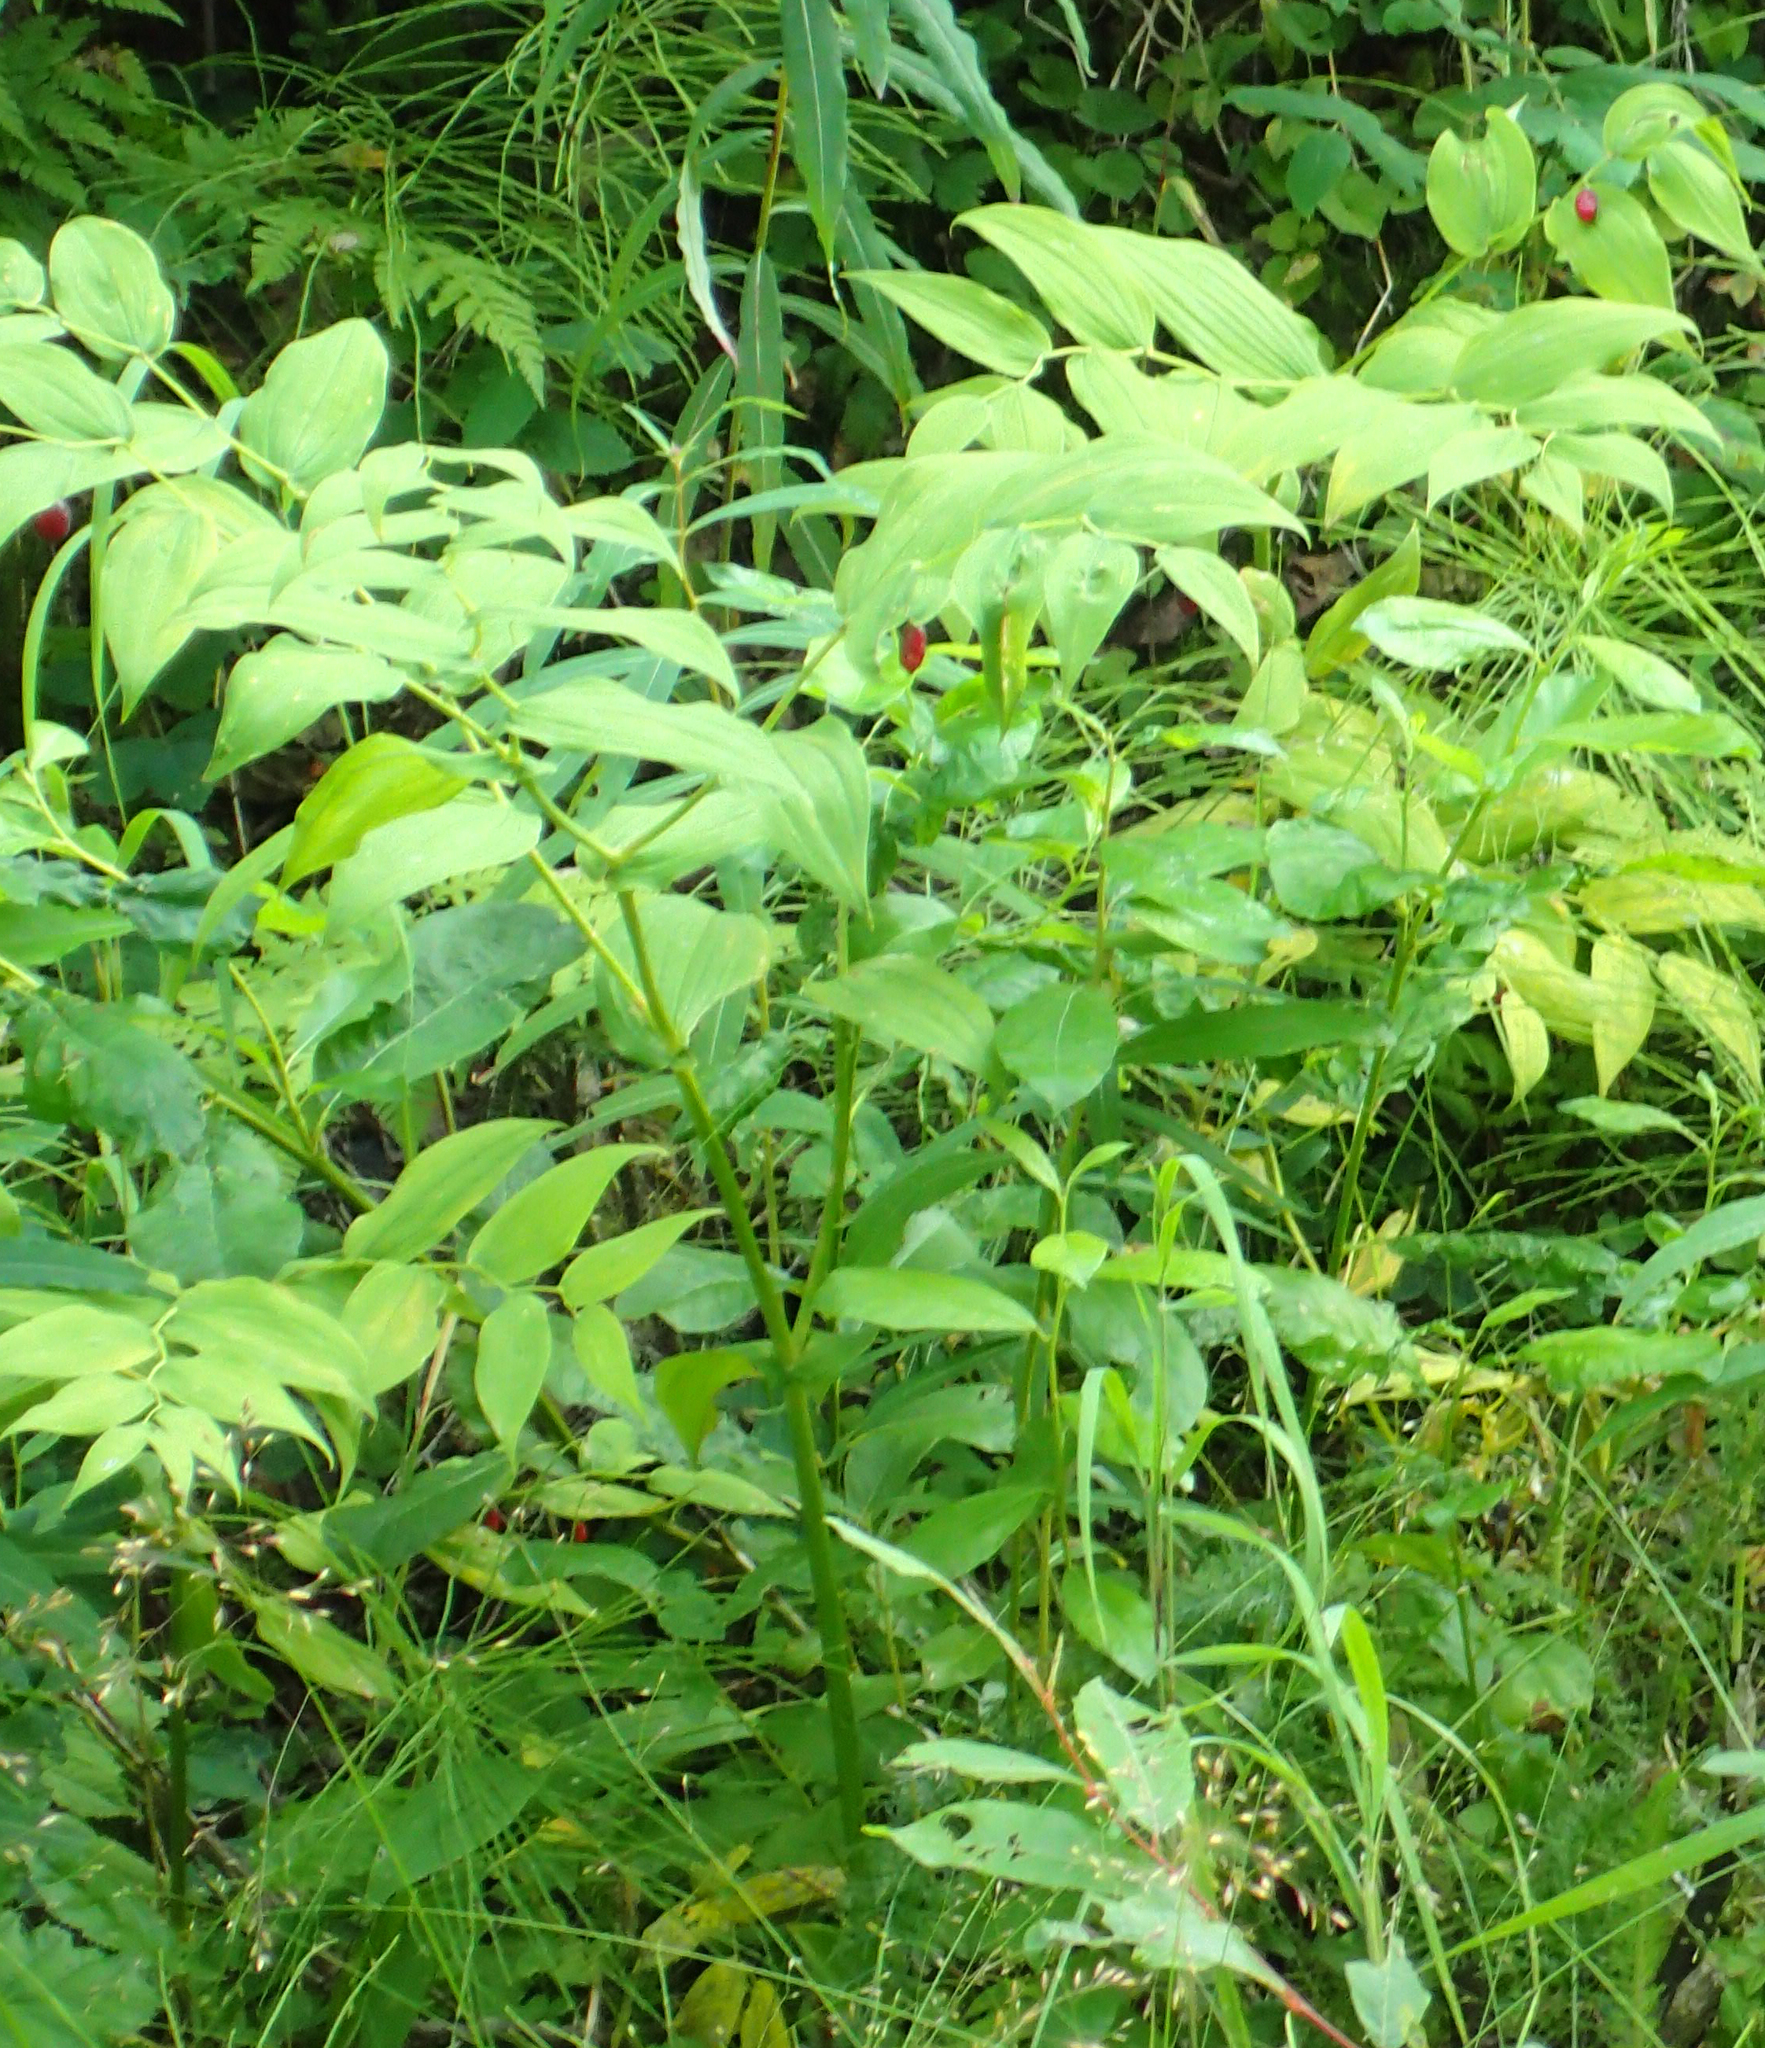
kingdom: Plantae
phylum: Tracheophyta
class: Liliopsida
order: Liliales
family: Liliaceae
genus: Streptopus
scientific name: Streptopus amplexifolius
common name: Clasp twisted stalk
